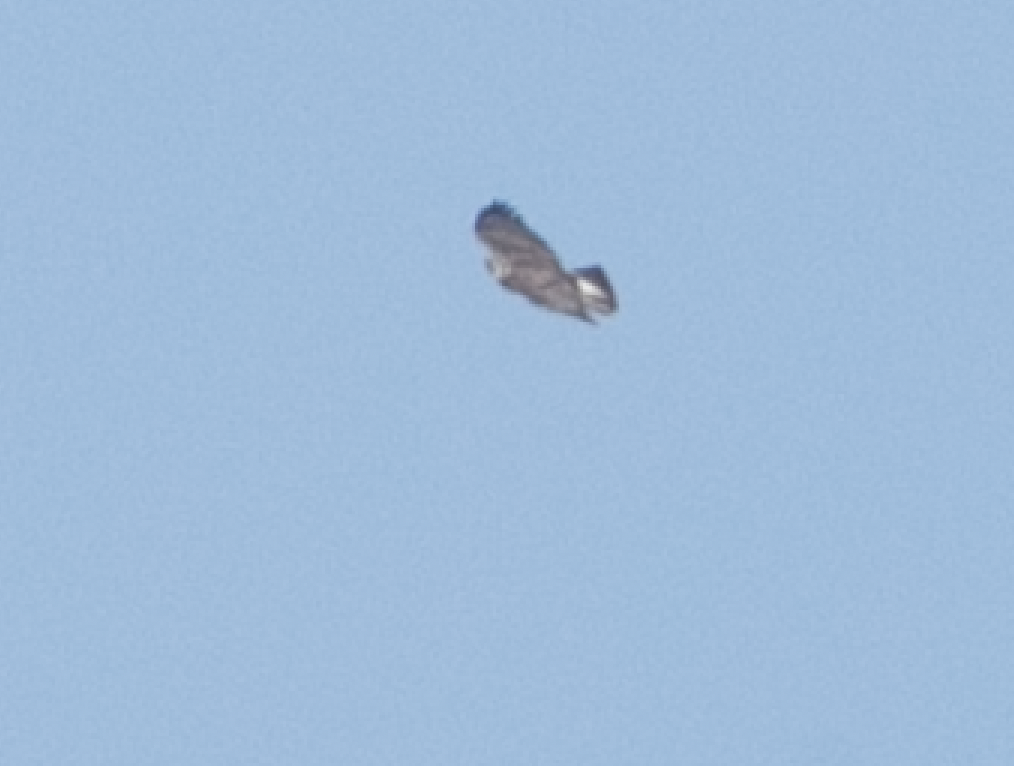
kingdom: Animalia
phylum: Chordata
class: Aves
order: Accipitriformes
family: Accipitridae
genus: Buteo
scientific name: Buteo buteo
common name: Common buzzard
